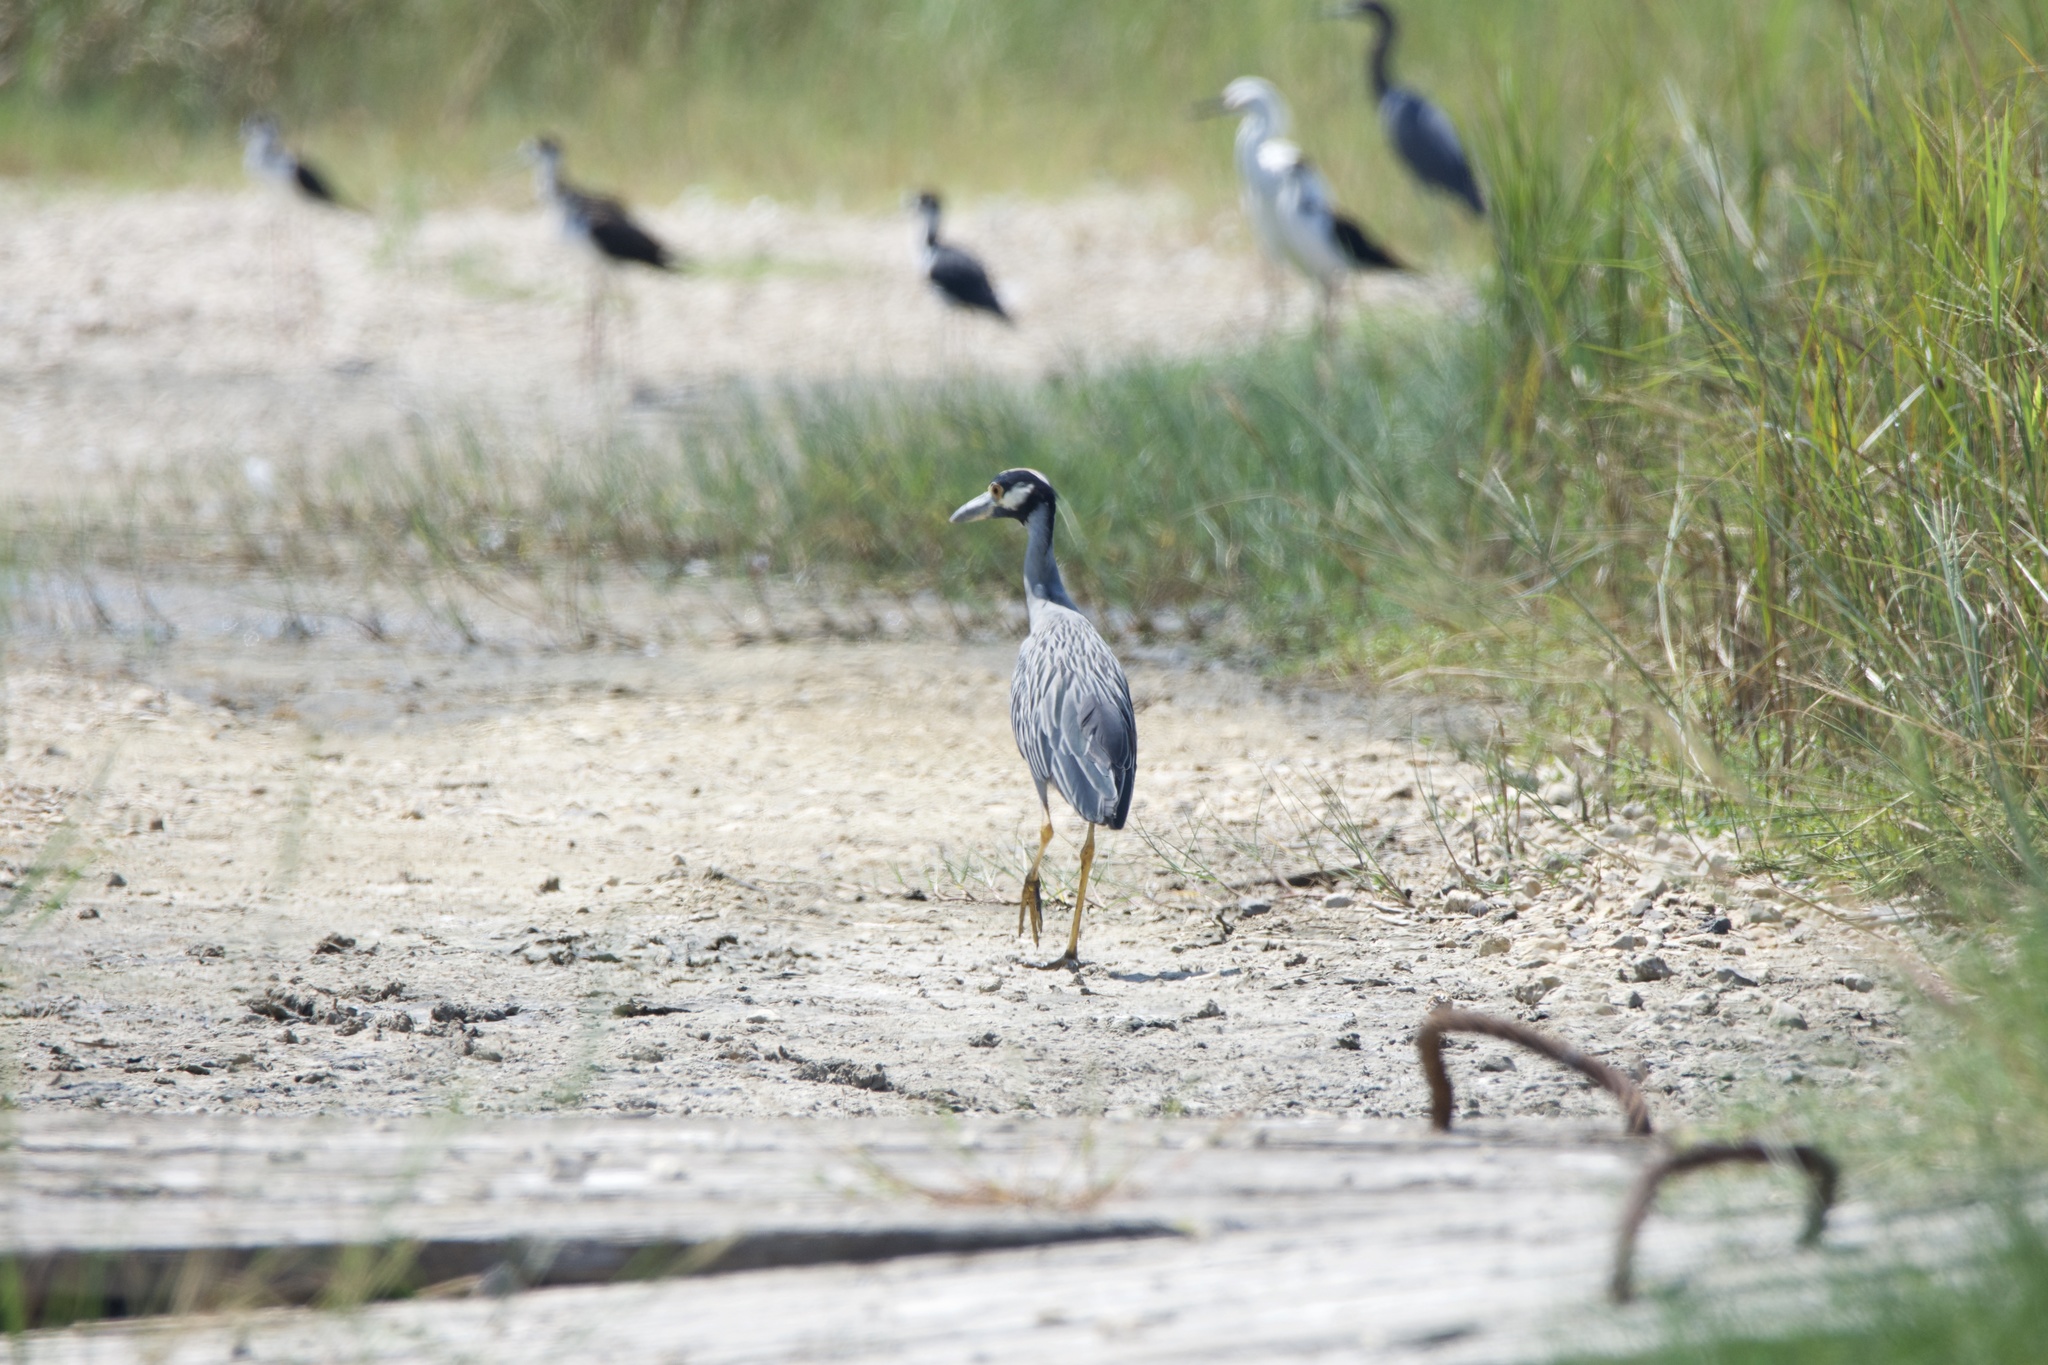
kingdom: Animalia
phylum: Chordata
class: Aves
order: Pelecaniformes
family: Ardeidae
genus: Nyctanassa
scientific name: Nyctanassa violacea
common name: Yellow-crowned night heron
